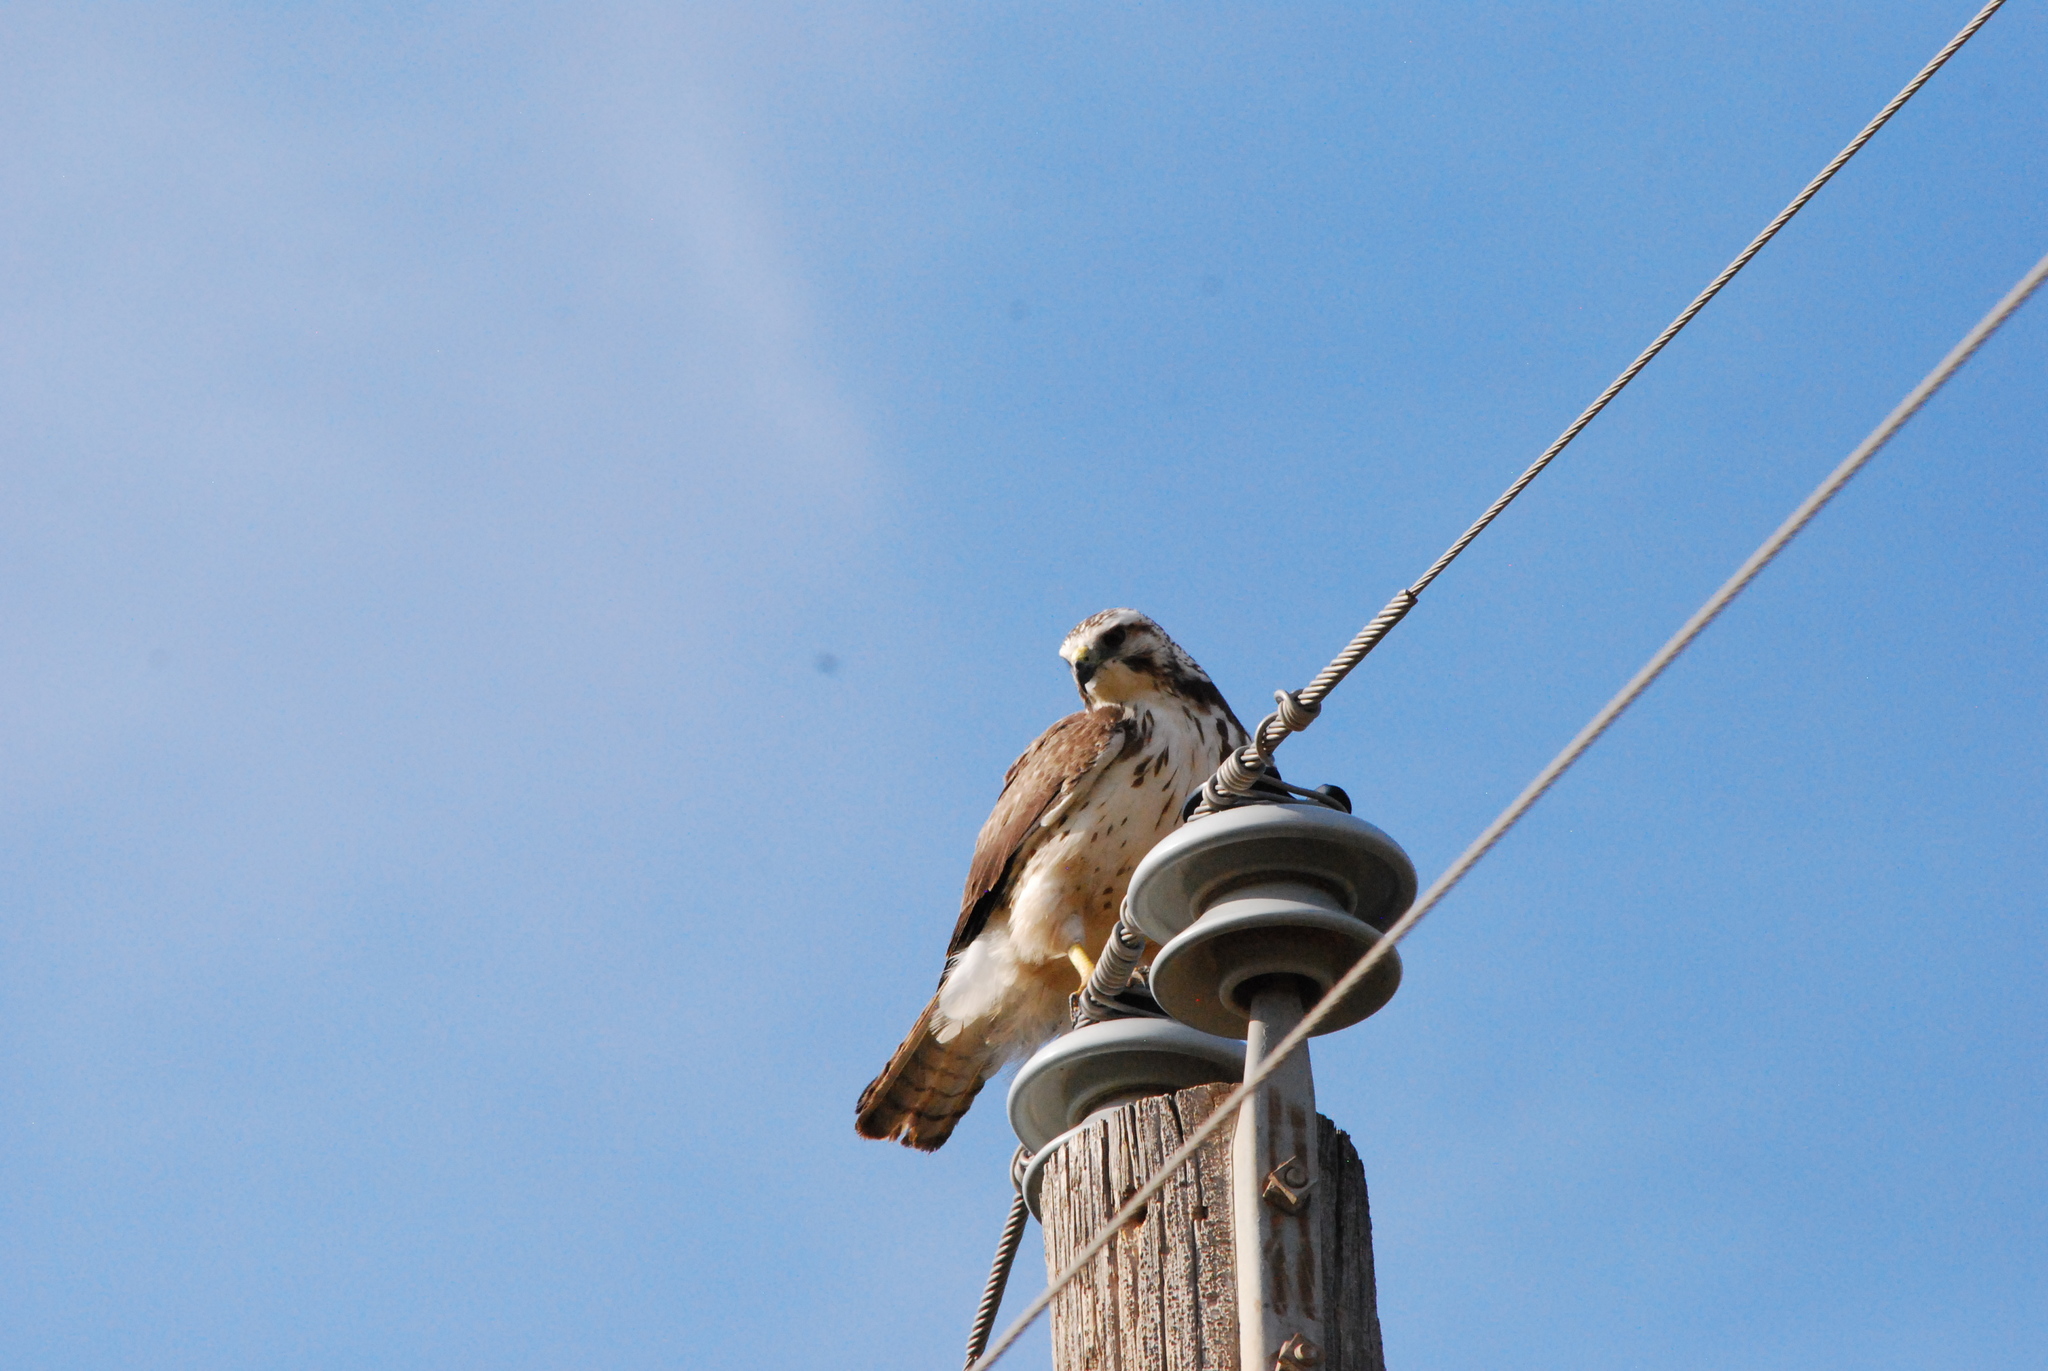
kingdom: Animalia
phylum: Chordata
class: Aves
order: Accipitriformes
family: Accipitridae
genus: Buteo
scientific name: Buteo swainsoni
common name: Swainson's hawk
